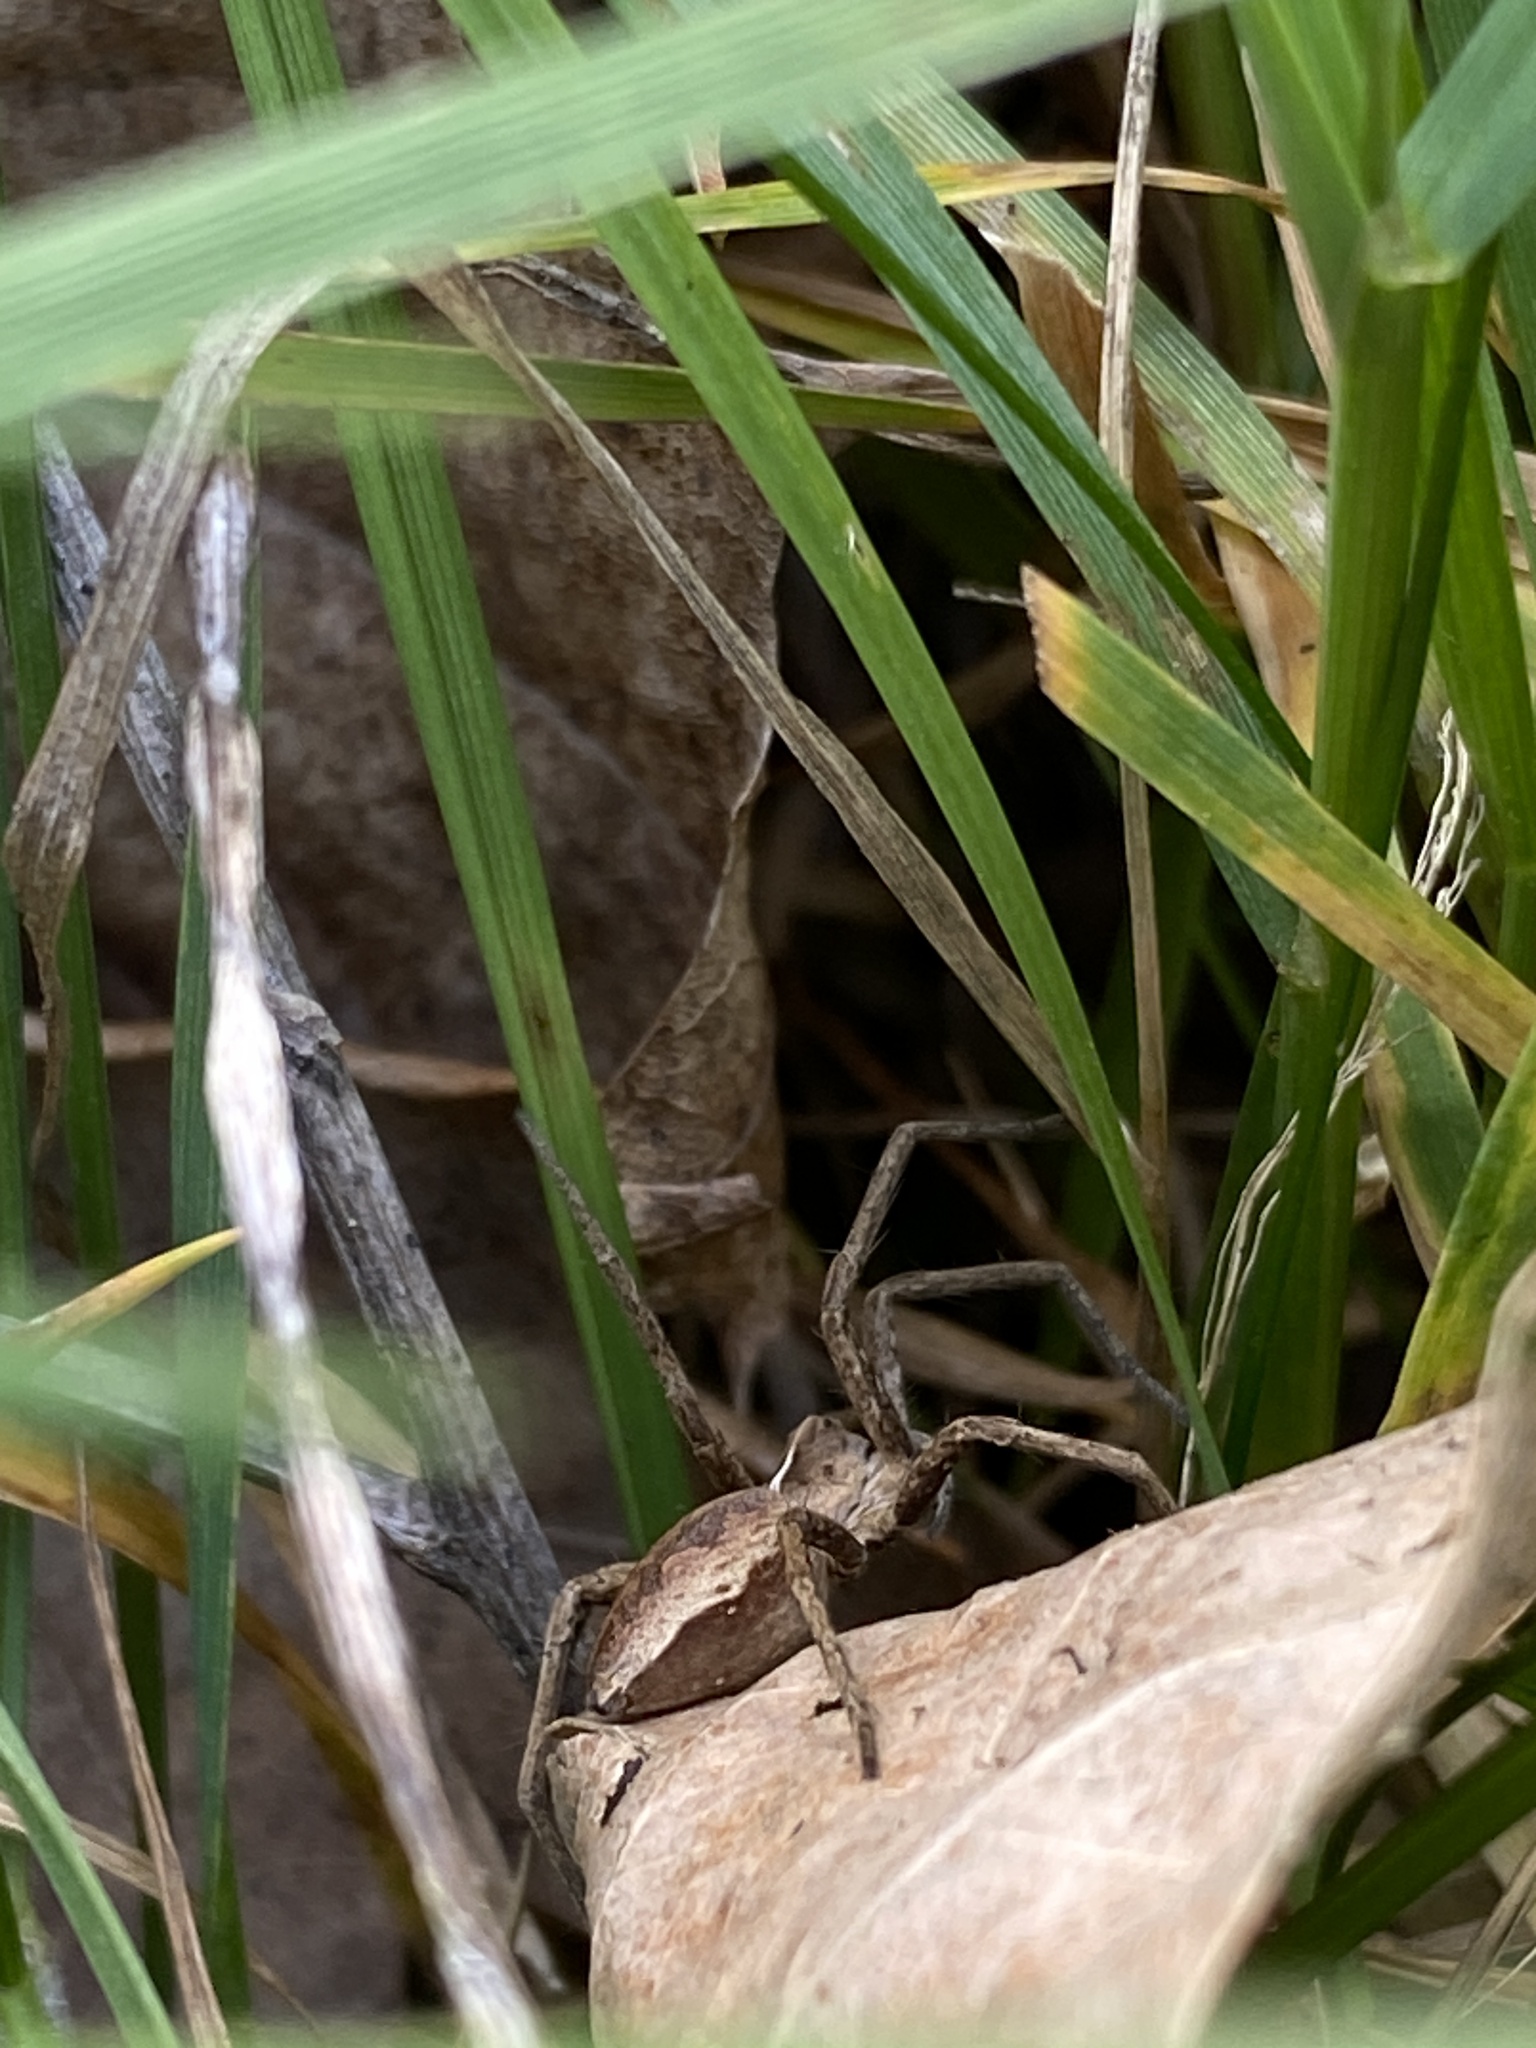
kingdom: Animalia
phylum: Arthropoda
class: Arachnida
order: Araneae
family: Pisauridae
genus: Pisaura
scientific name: Pisaura mirabilis
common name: Tent spider
